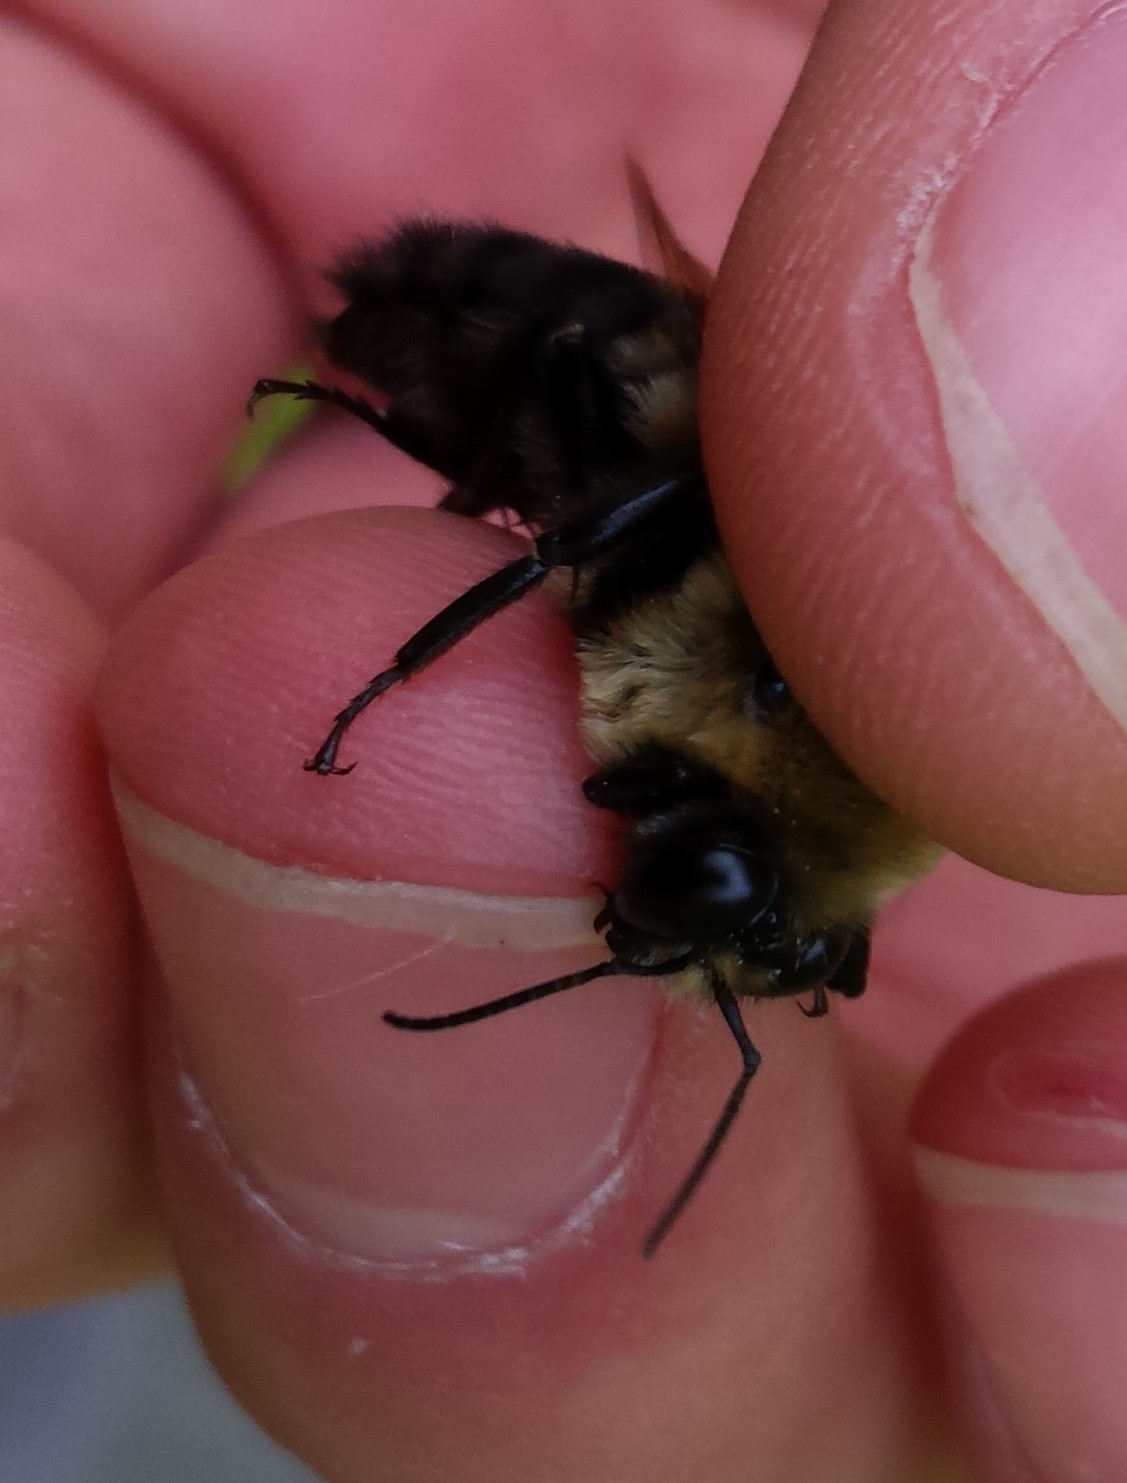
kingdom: Animalia
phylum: Arthropoda
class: Insecta
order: Hymenoptera
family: Apidae
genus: Bombus
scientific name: Bombus griseocollis
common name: Brown-belted bumble bee
